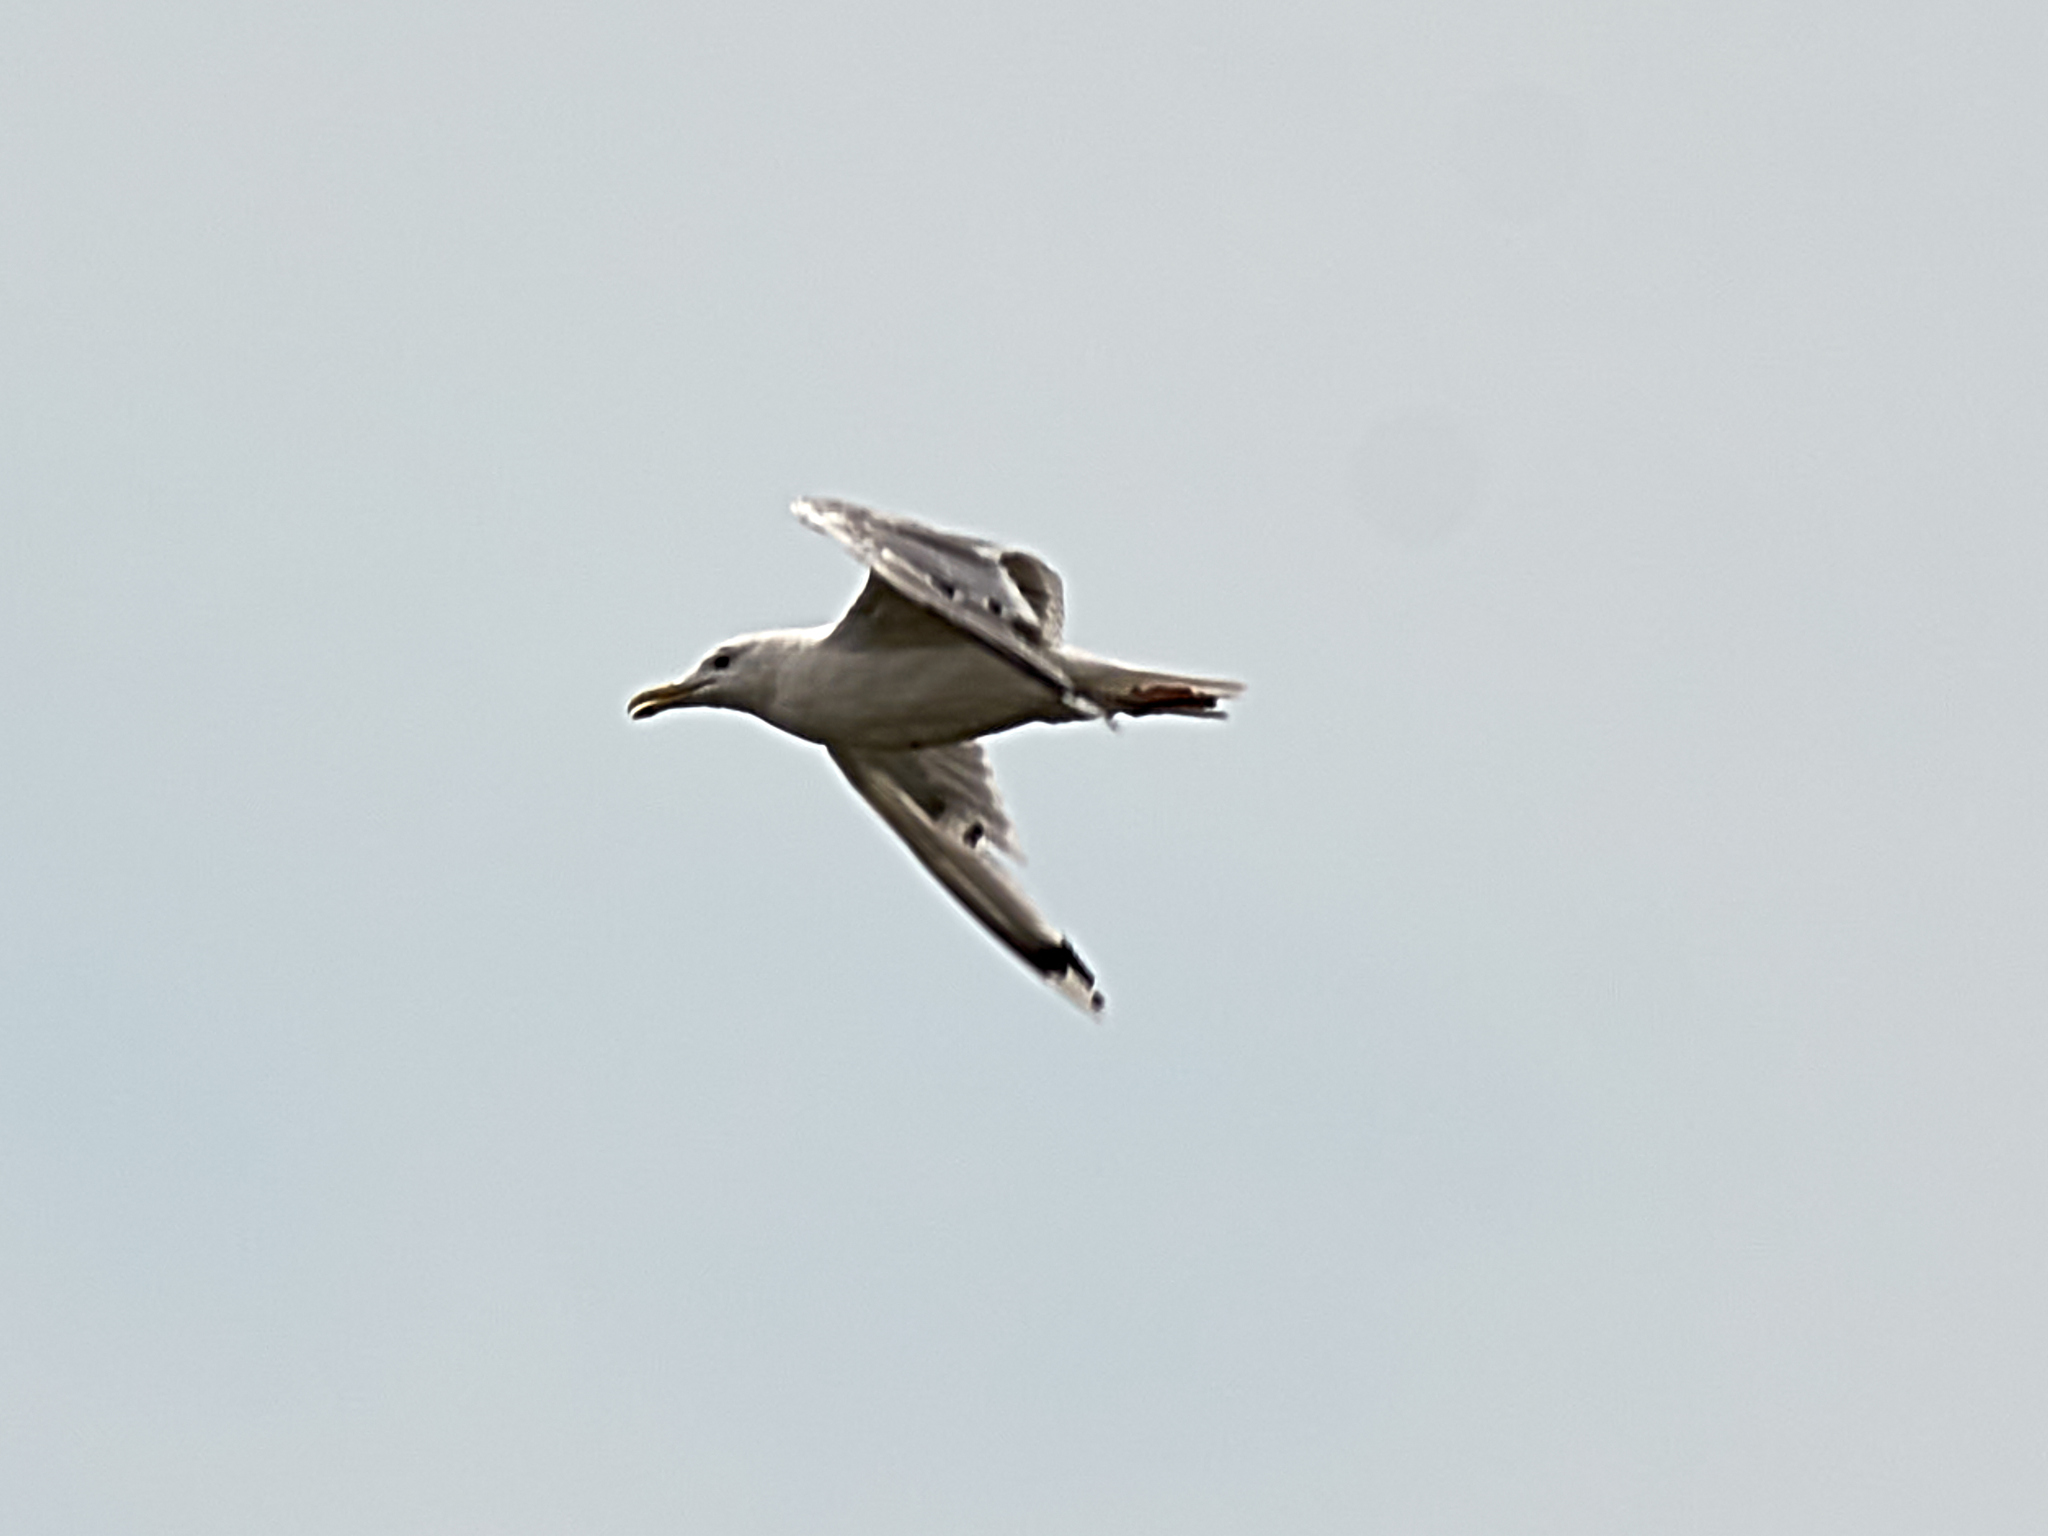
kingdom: Animalia
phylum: Chordata
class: Aves
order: Charadriiformes
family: Laridae
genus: Larus
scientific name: Larus cachinnans
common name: Caspian gull
